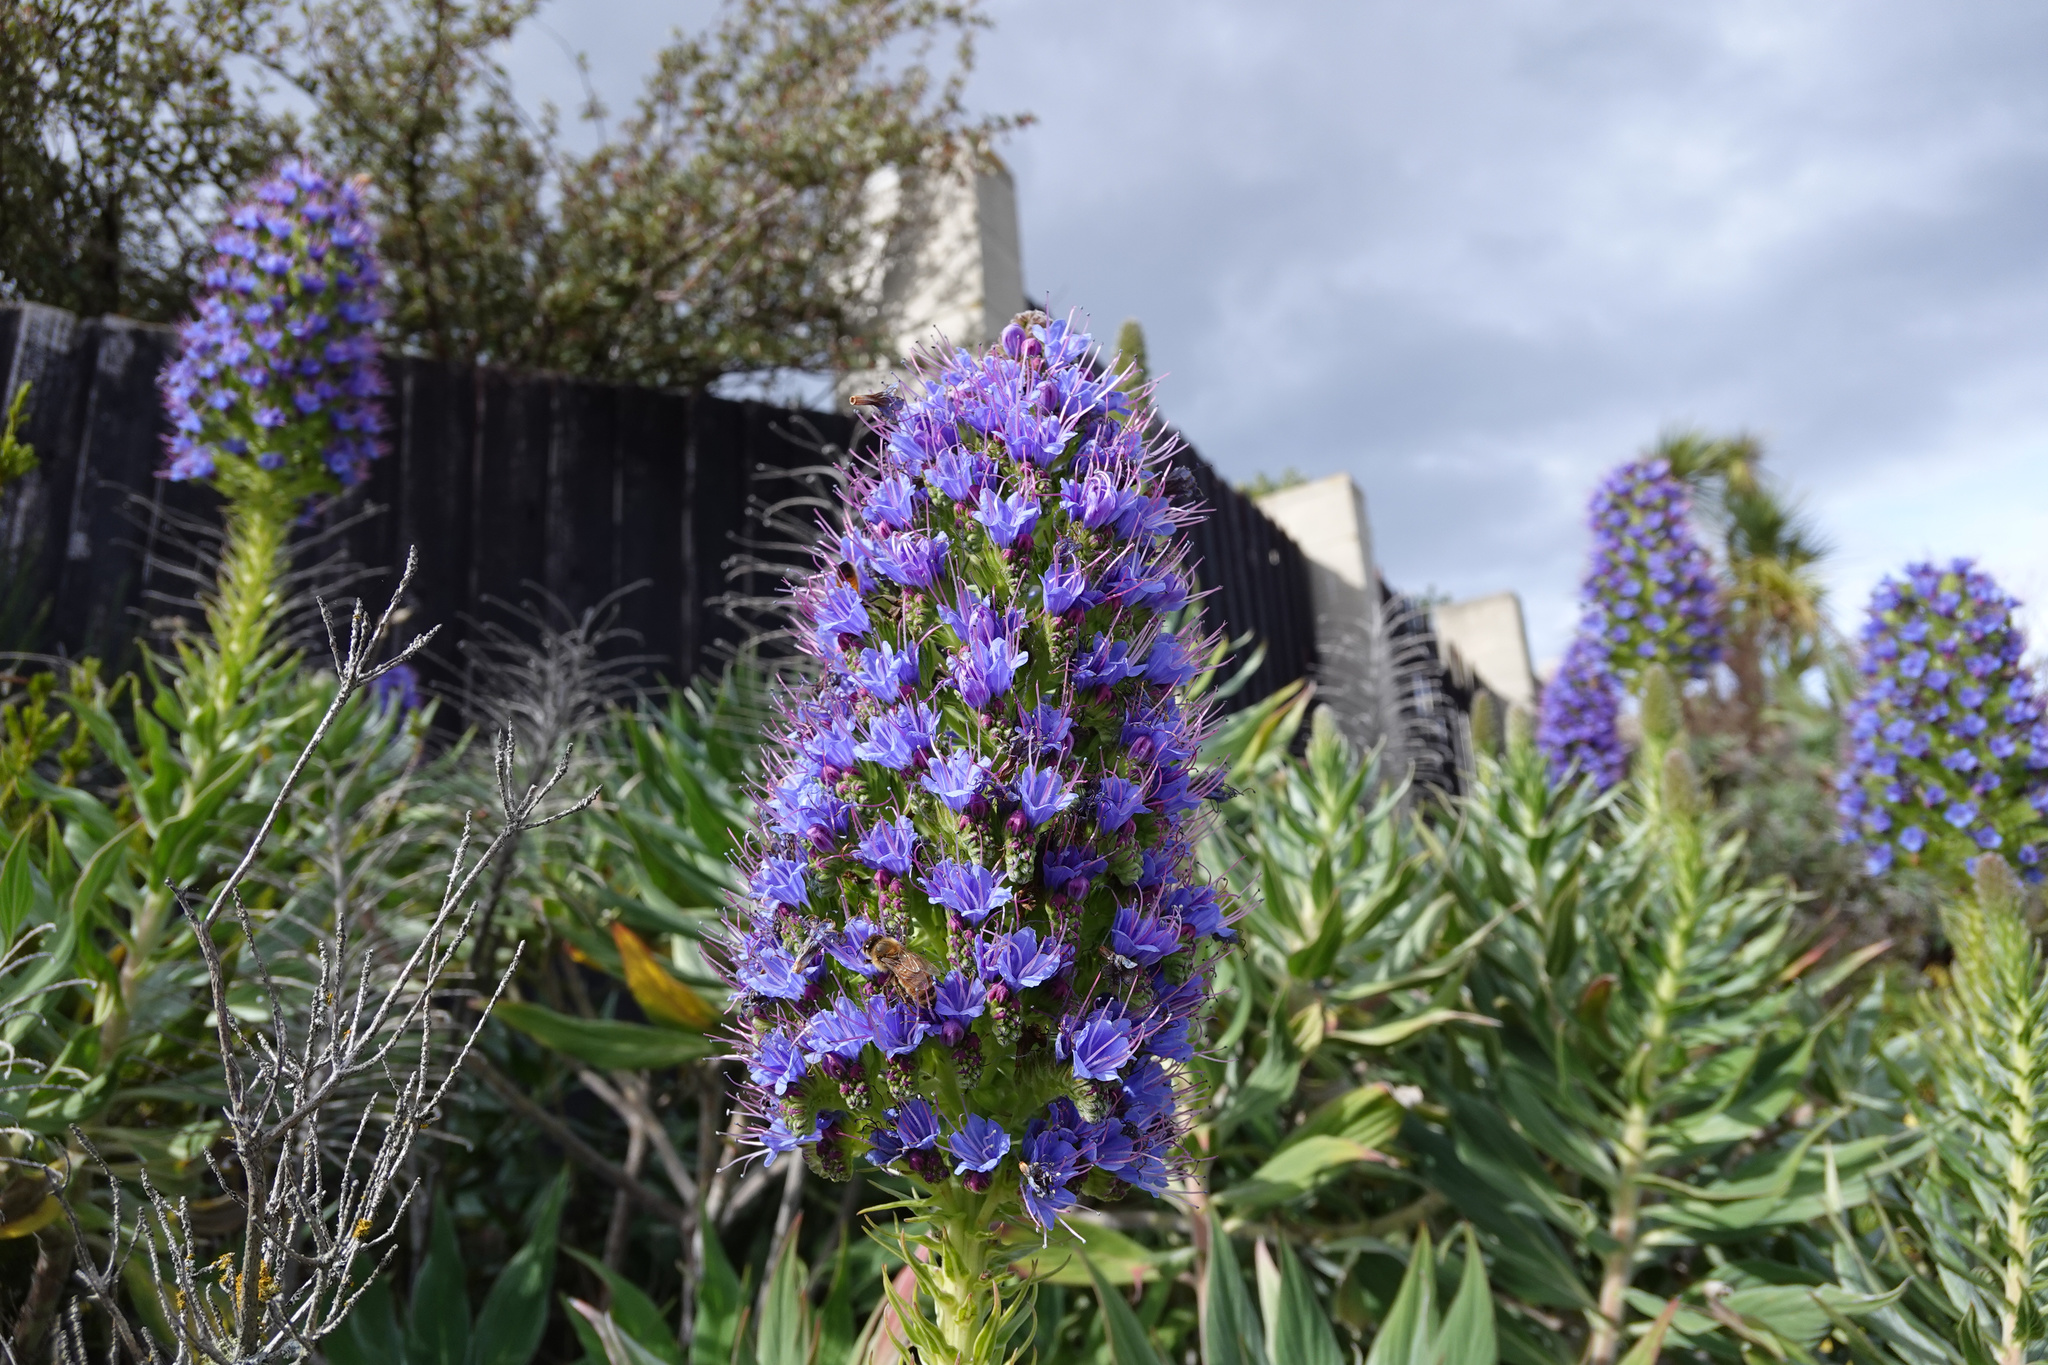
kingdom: Plantae
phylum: Tracheophyta
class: Magnoliopsida
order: Boraginales
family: Boraginaceae
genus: Echium
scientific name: Echium candicans
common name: Pride of madeira
